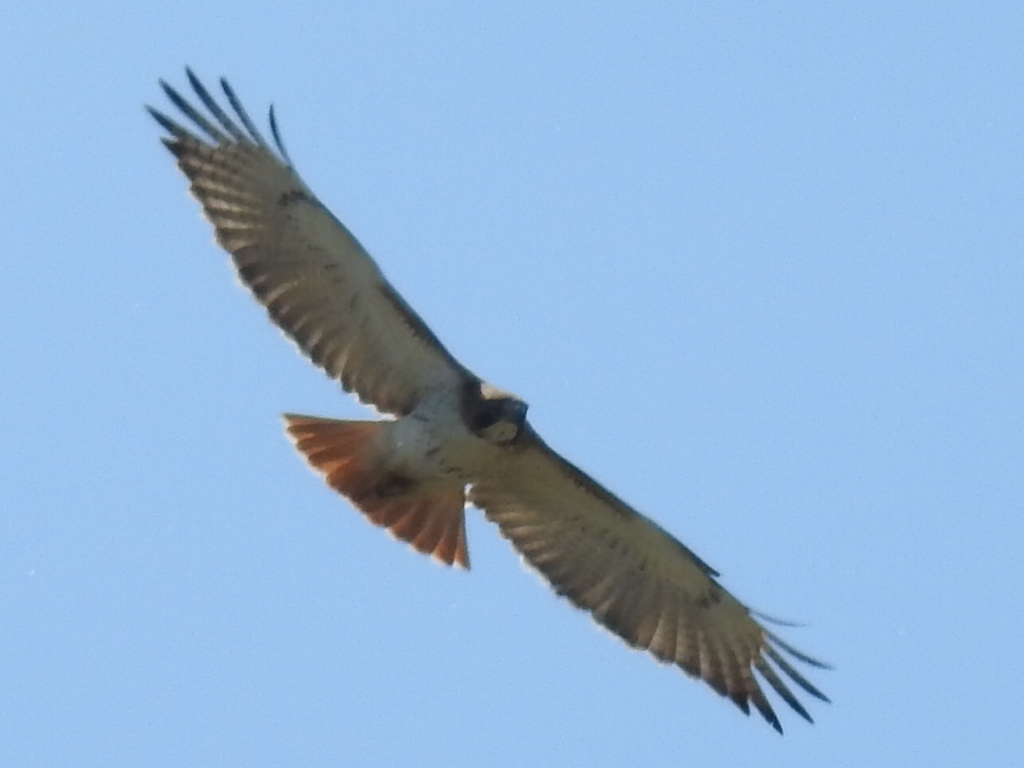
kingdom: Animalia
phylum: Chordata
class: Aves
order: Accipitriformes
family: Accipitridae
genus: Buteo
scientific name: Buteo jamaicensis
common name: Red-tailed hawk
